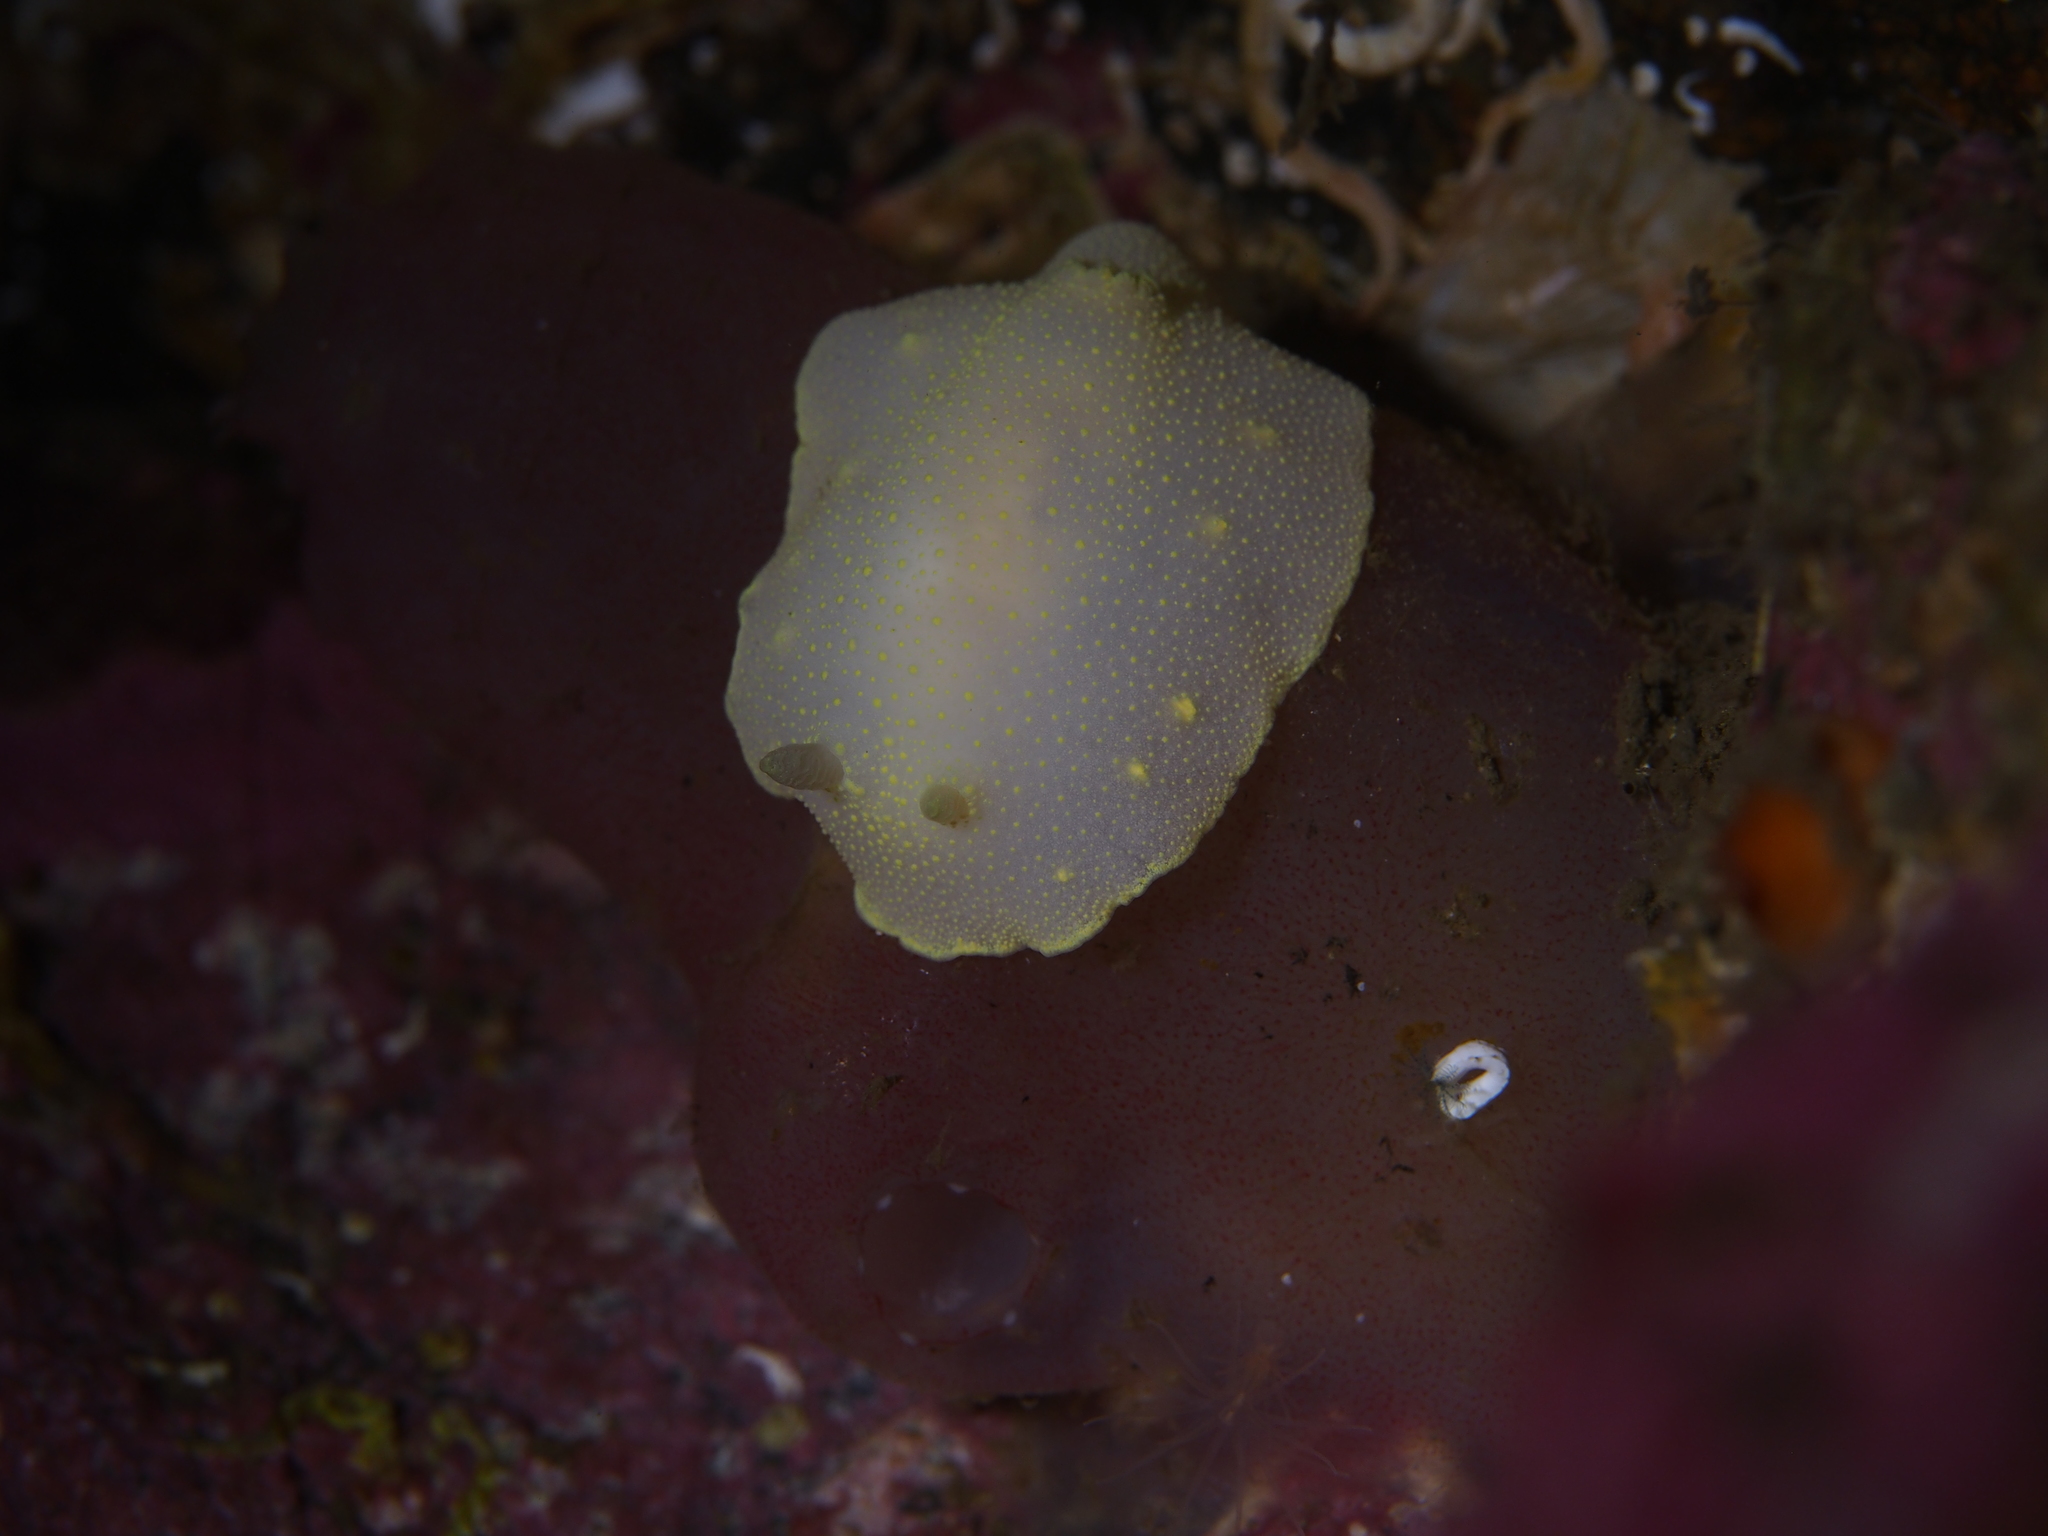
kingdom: Animalia
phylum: Mollusca
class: Gastropoda
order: Nudibranchia
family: Cadlinidae
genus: Cadlina
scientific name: Cadlina laevis
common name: White atlantic cadlina
